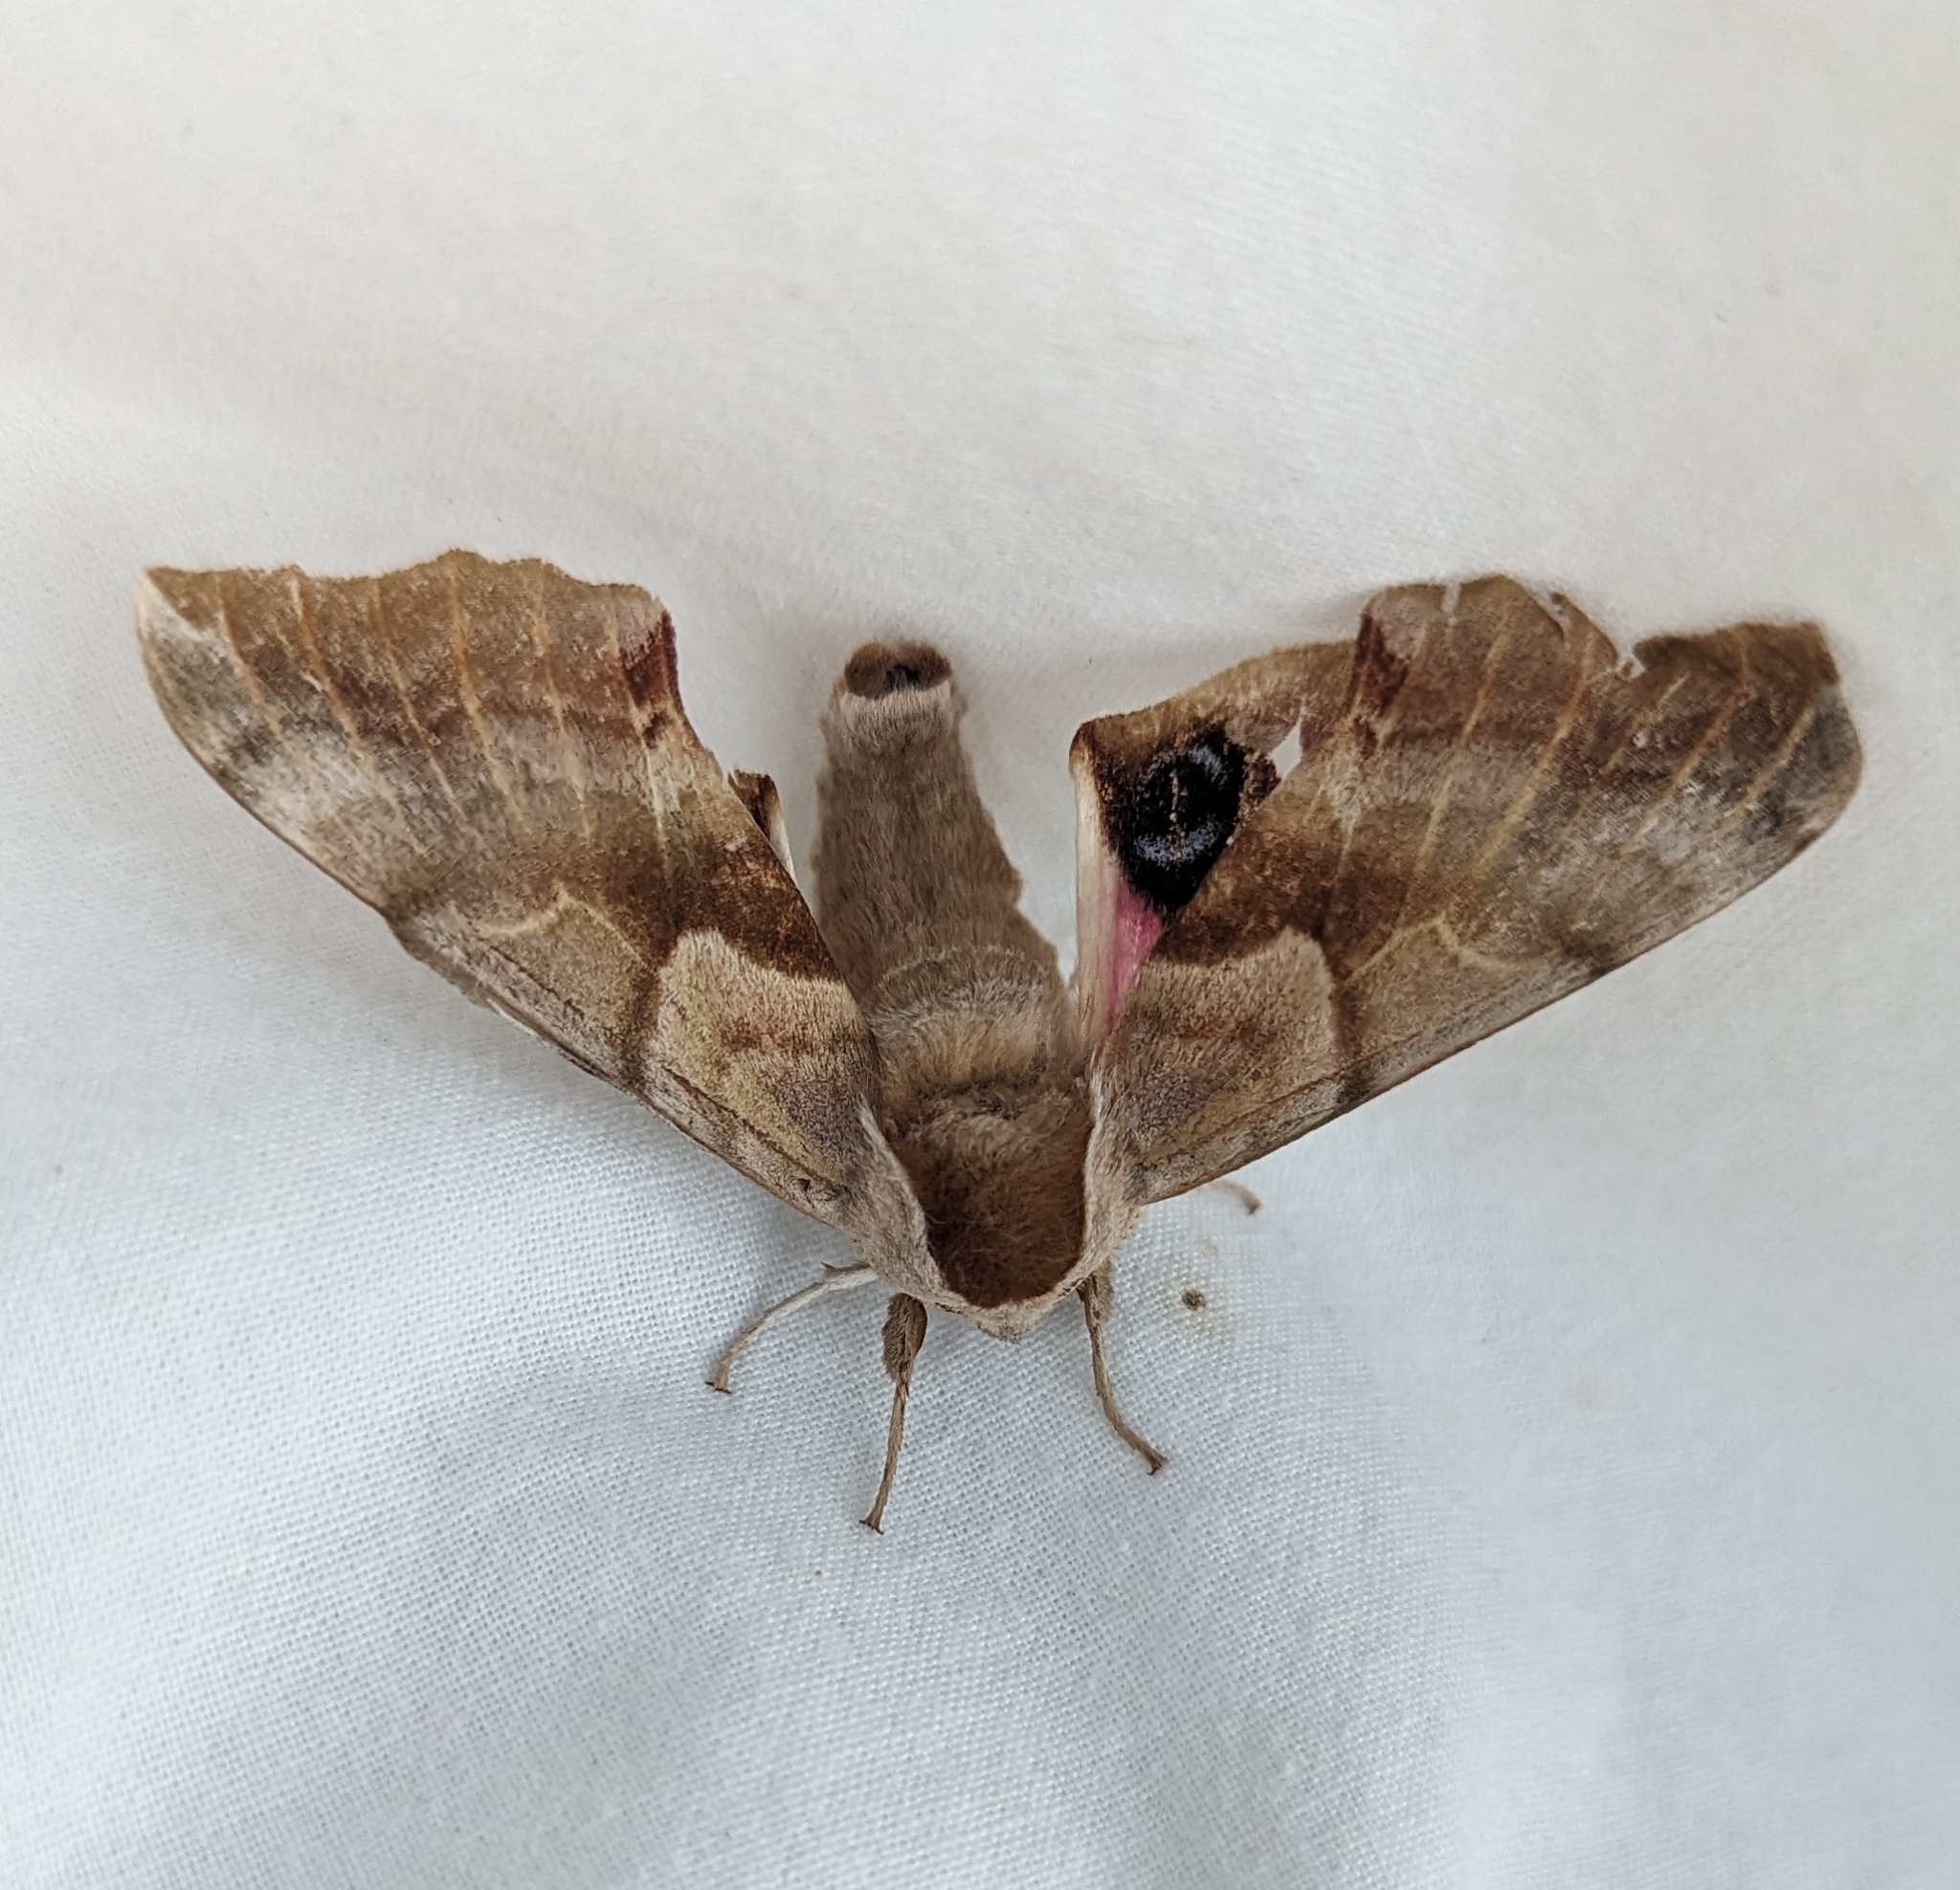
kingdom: Animalia
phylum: Arthropoda
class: Insecta
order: Lepidoptera
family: Sphingidae
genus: Smerinthus
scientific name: Smerinthus cerisyi
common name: Cerisy's sphinx moth
